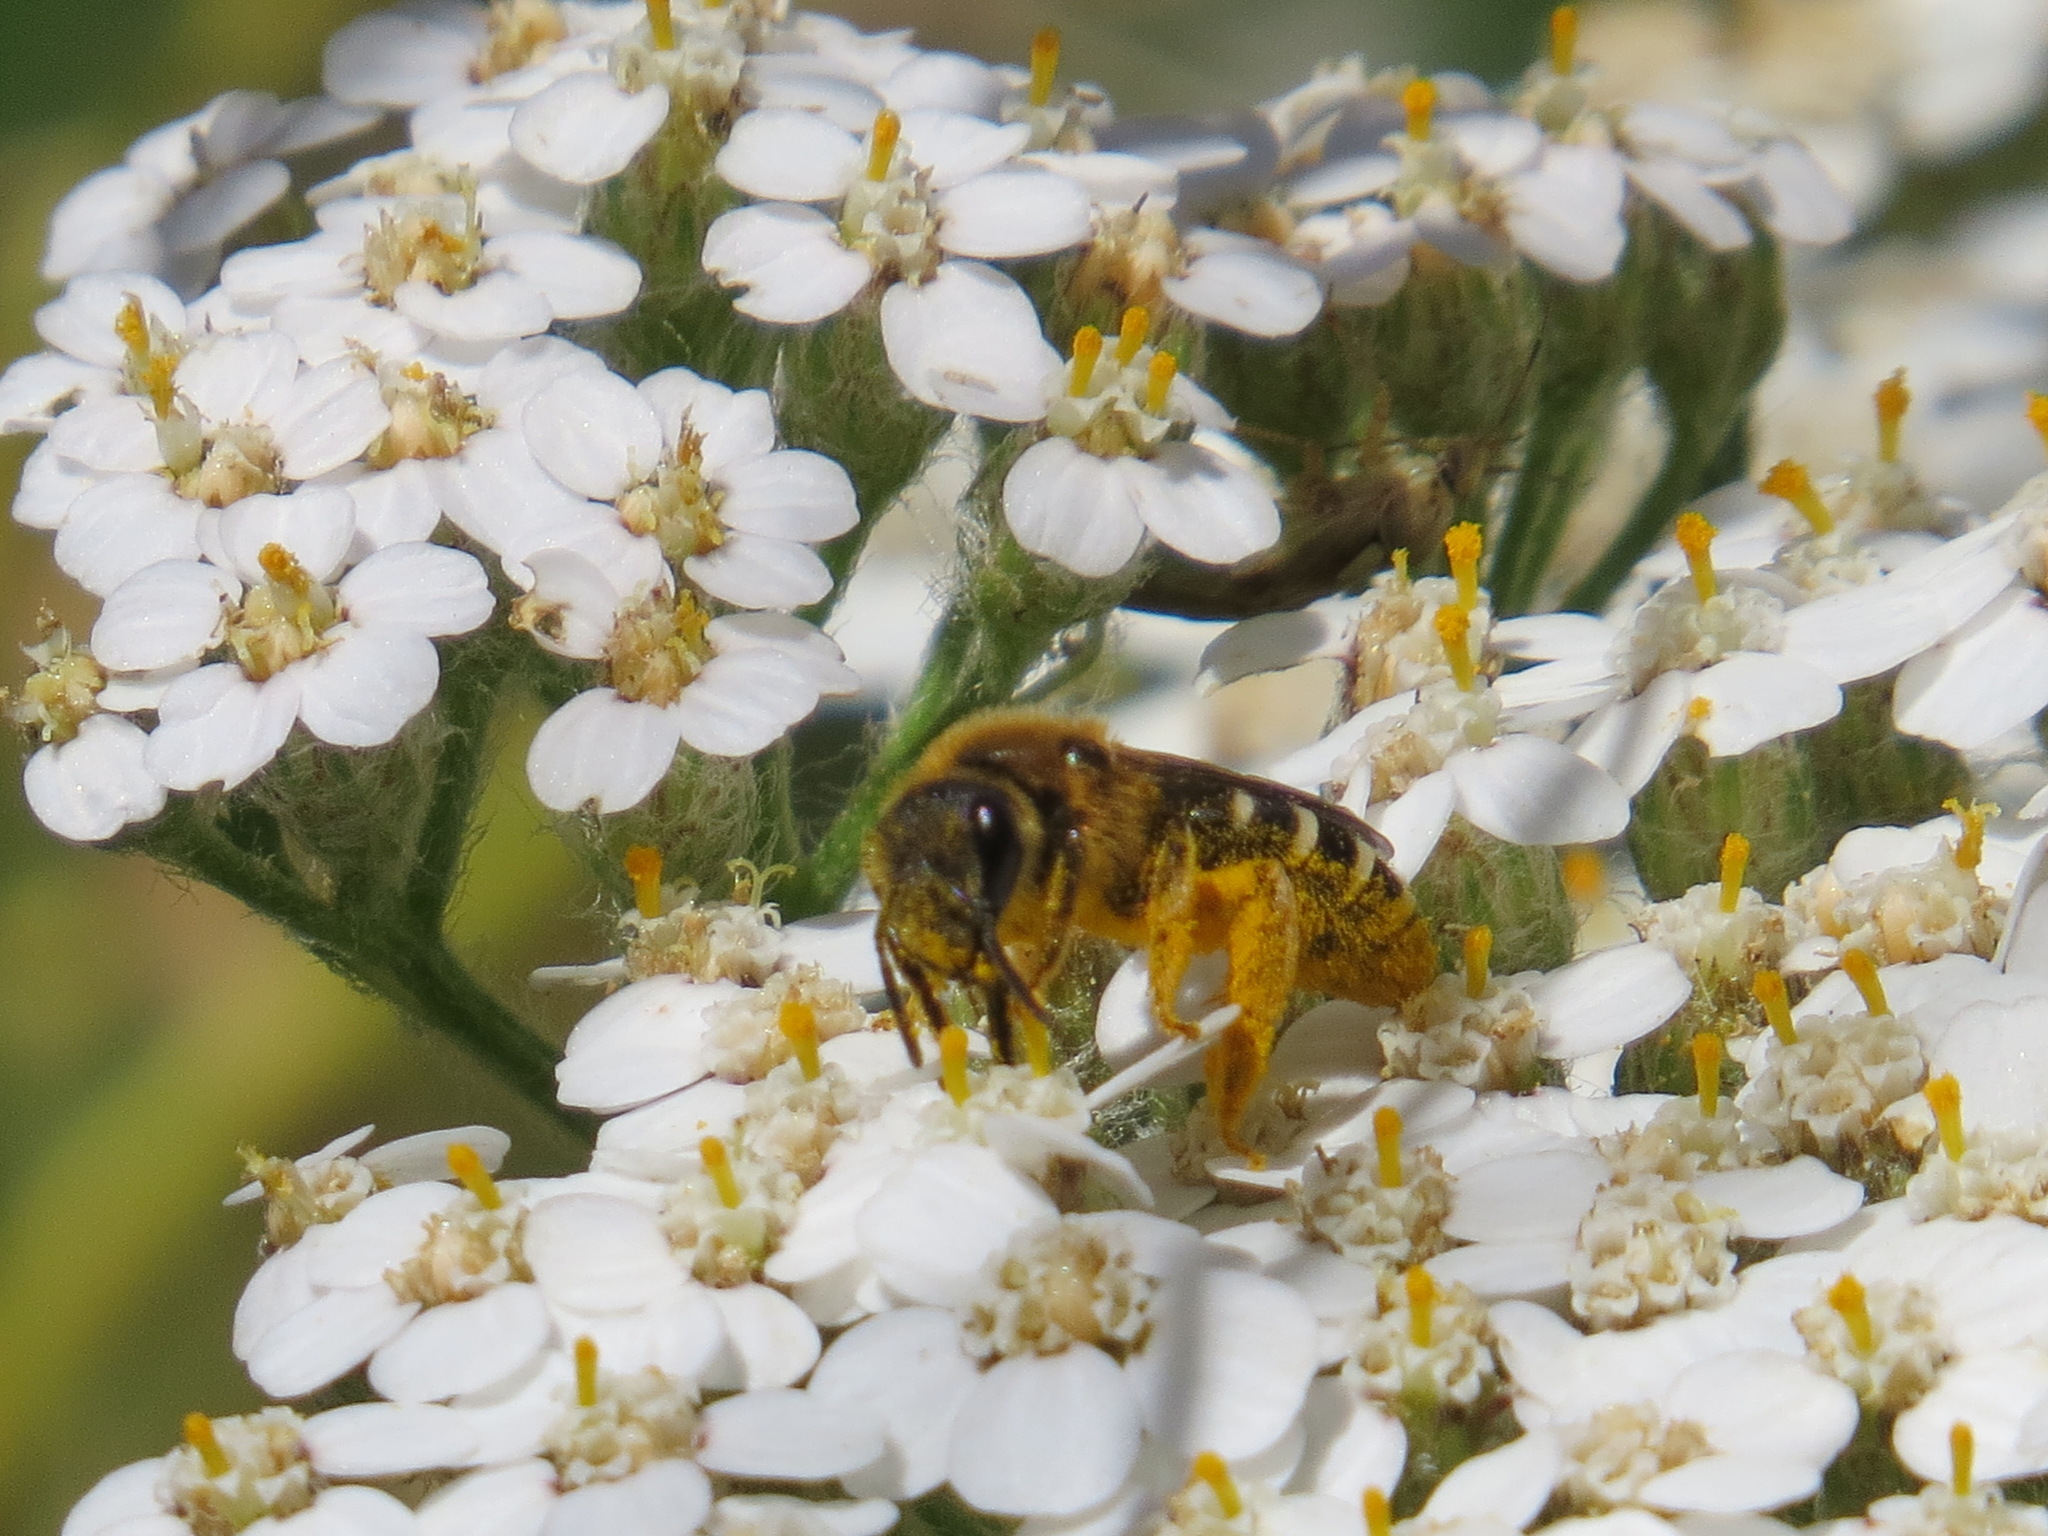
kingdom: Animalia
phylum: Arthropoda
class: Insecta
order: Hymenoptera
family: Halictidae
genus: Halictus
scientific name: Halictus rubicundus
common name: Orange-legged furrow bee
